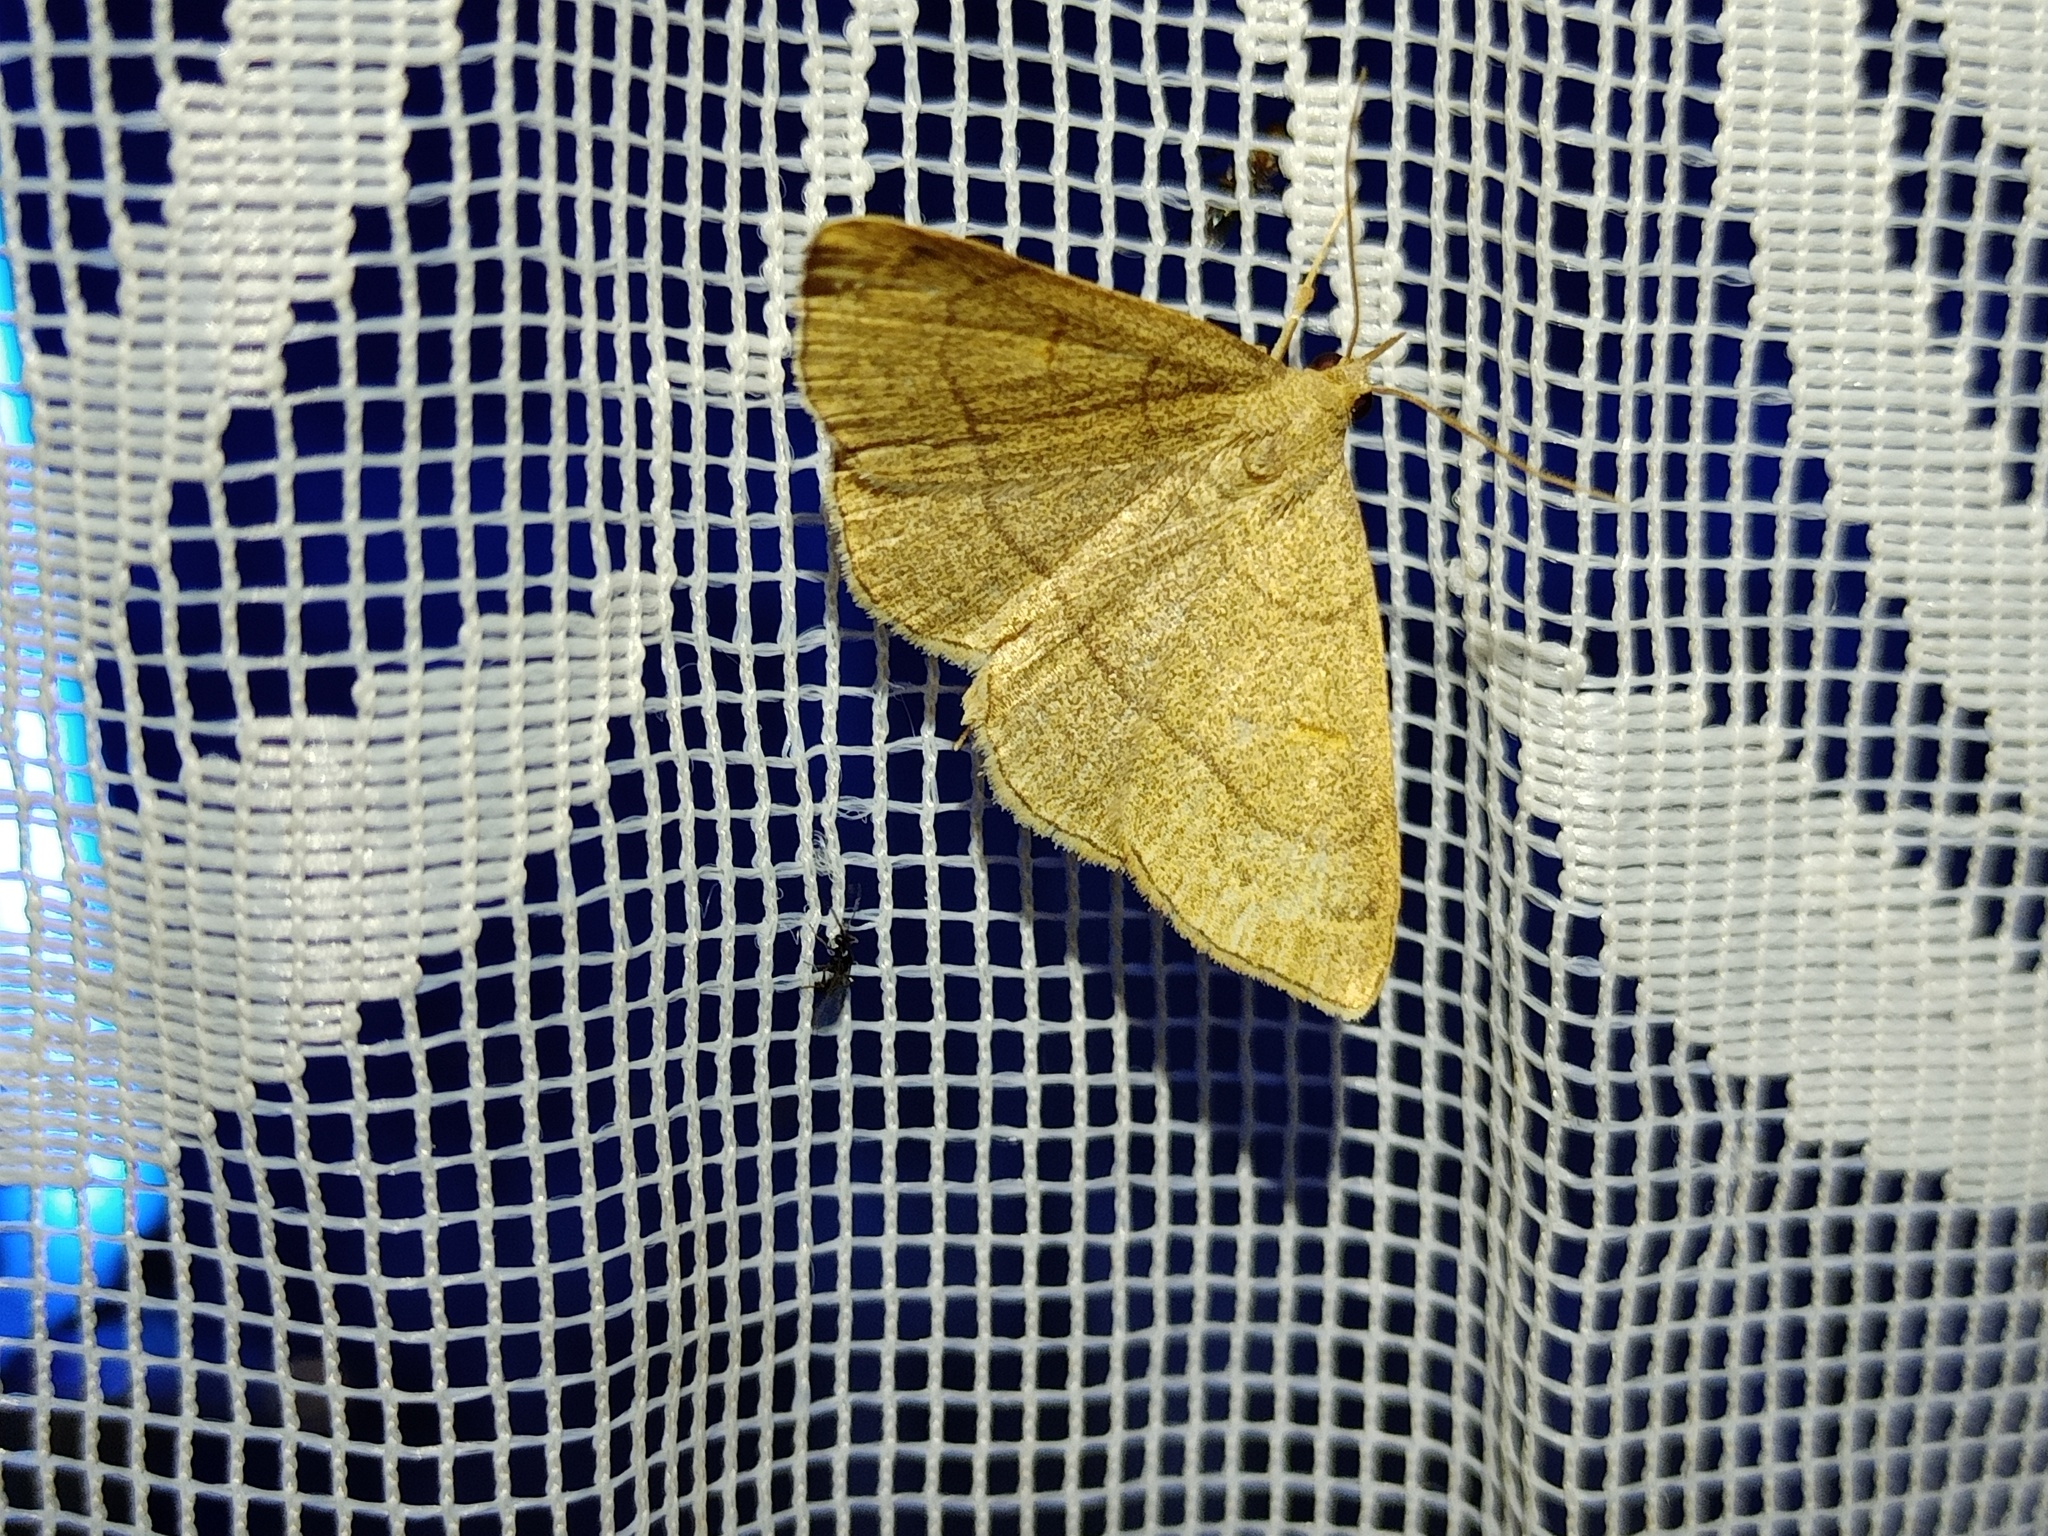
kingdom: Animalia
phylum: Arthropoda
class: Insecta
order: Lepidoptera
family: Erebidae
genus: Paracolax
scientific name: Paracolax tristalis
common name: Clay fan-foot
